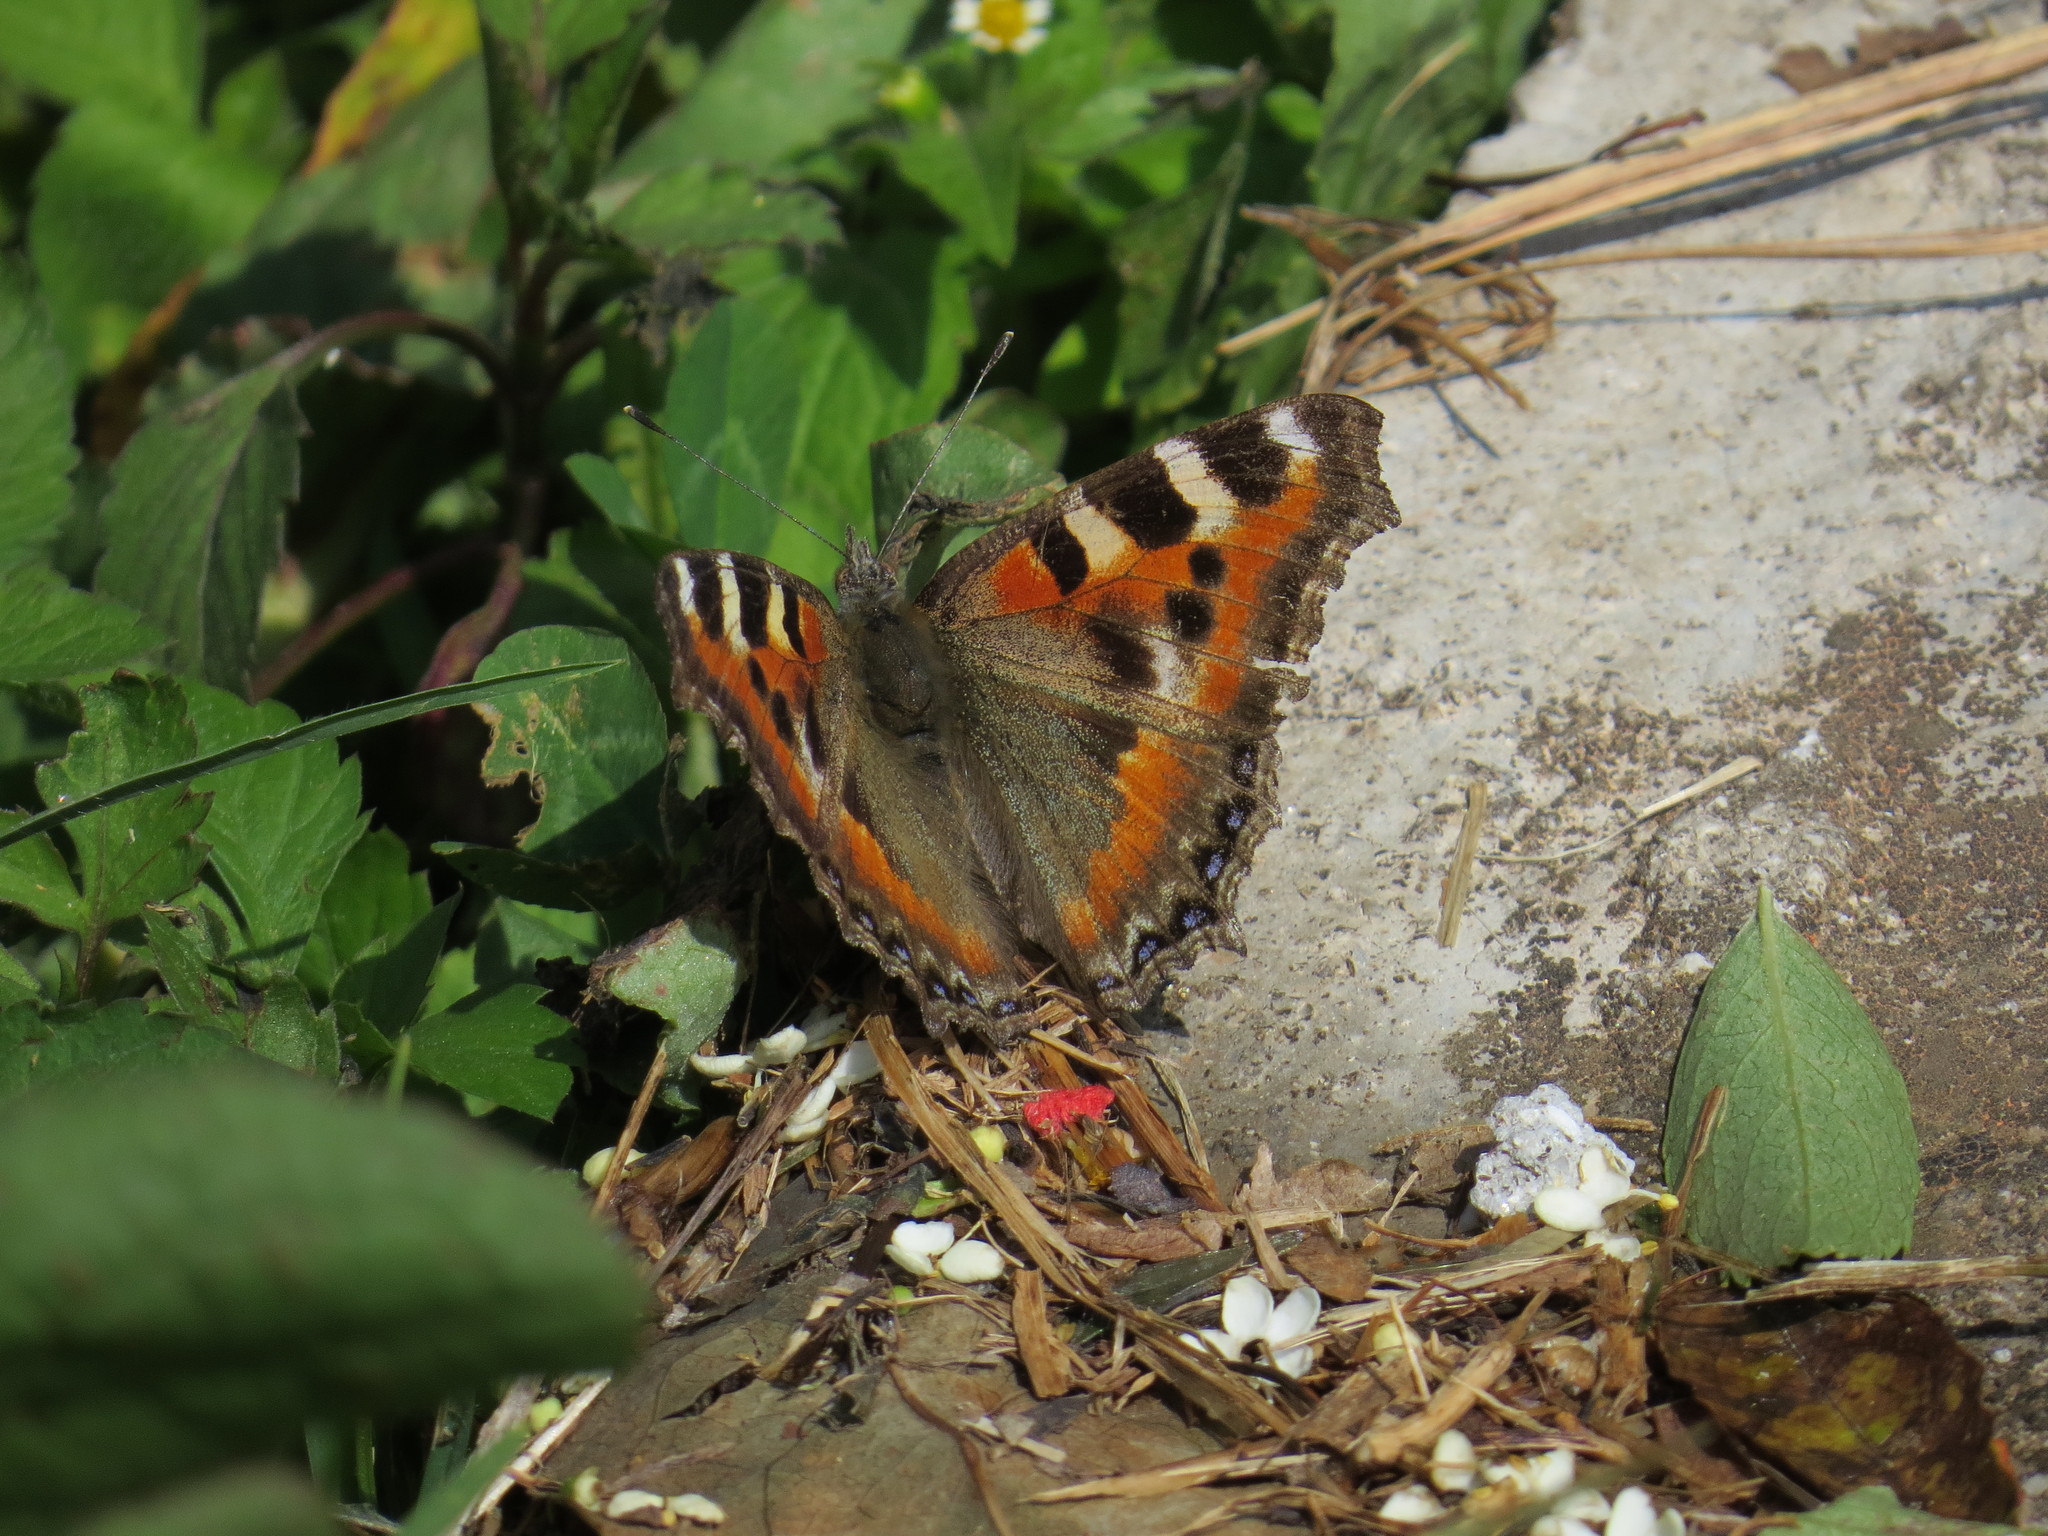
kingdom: Animalia
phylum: Arthropoda
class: Insecta
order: Lepidoptera
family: Nymphalidae
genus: Aglais
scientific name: Aglais caschmirensis
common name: Indian tortoiseshell
